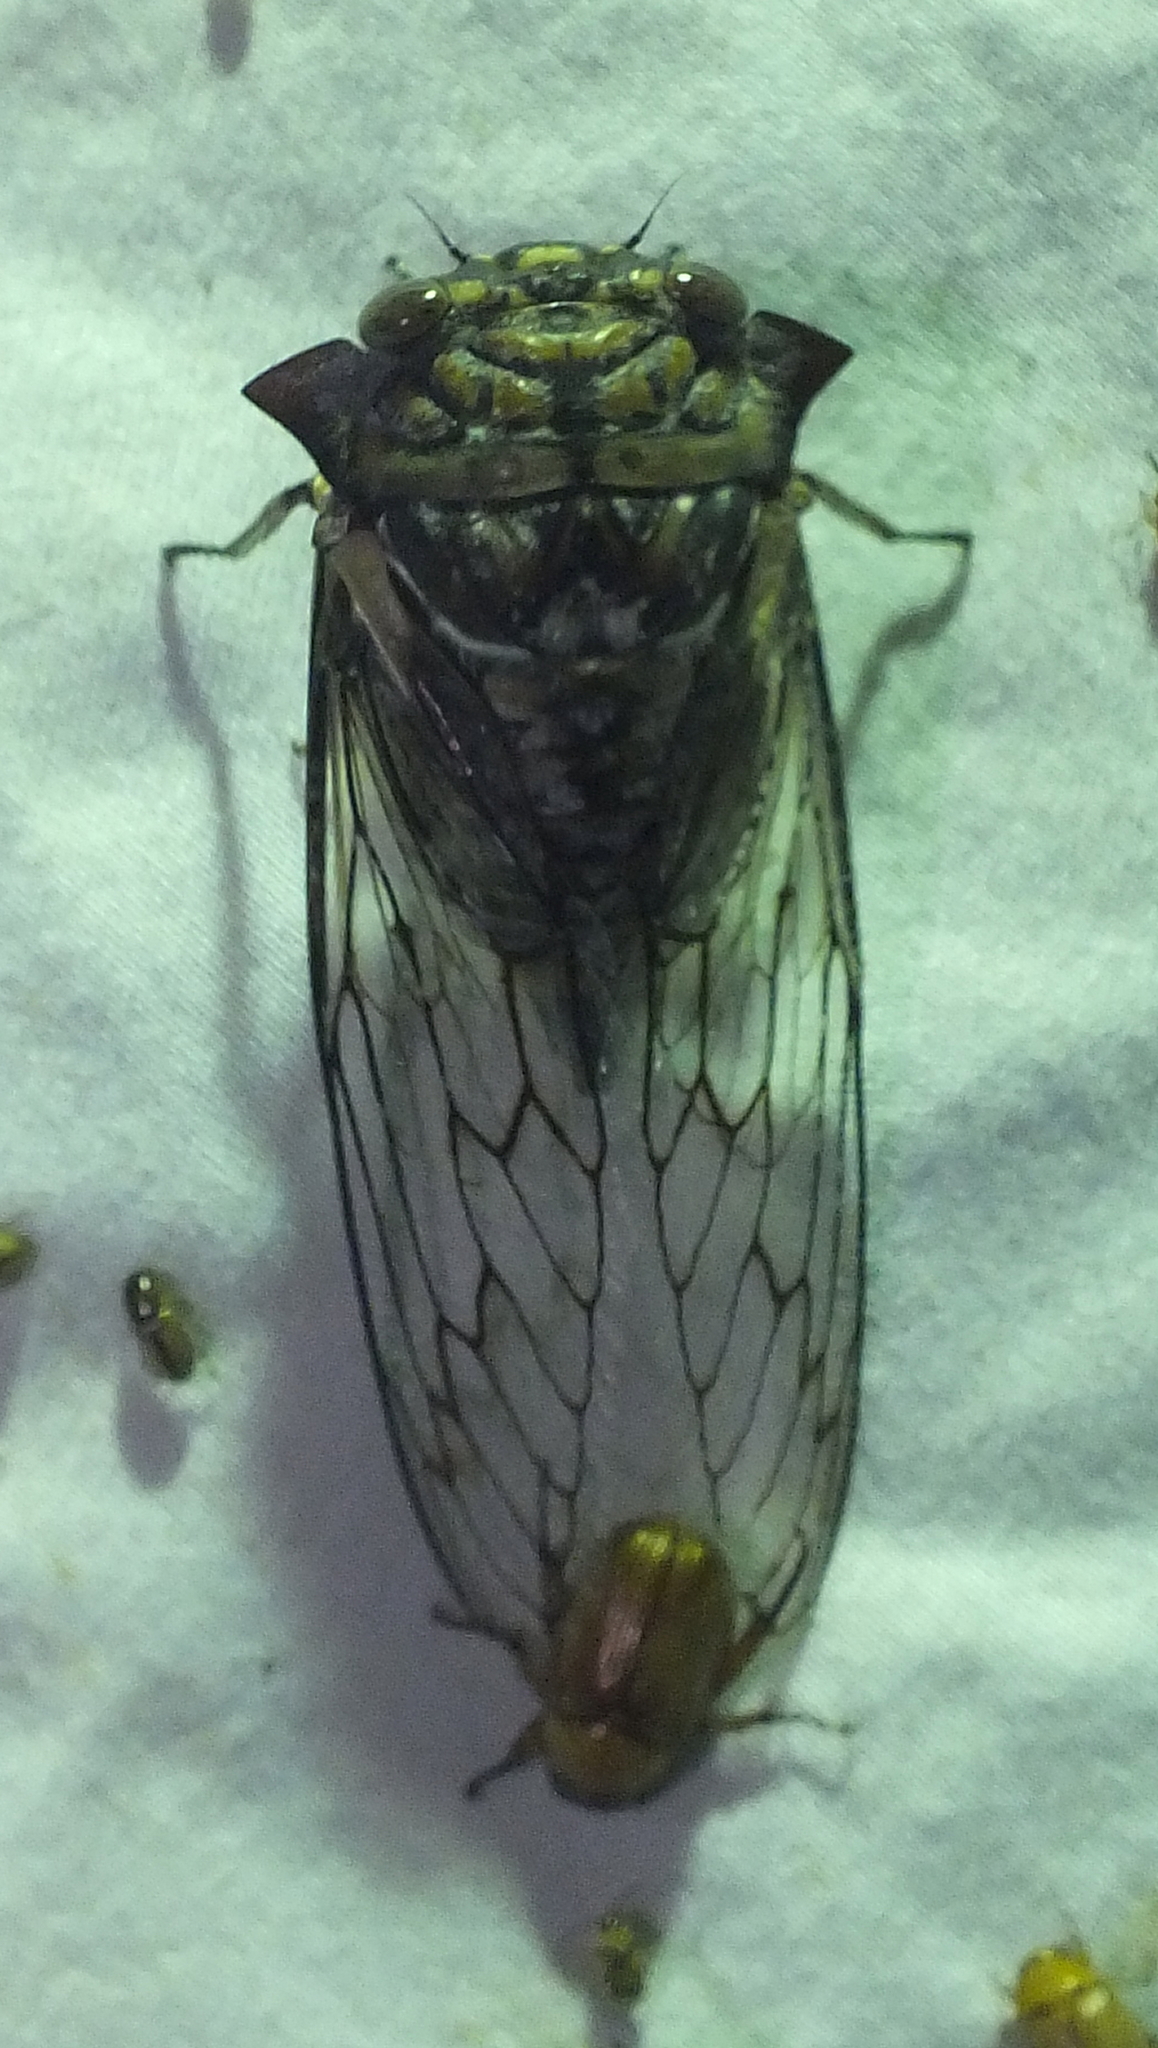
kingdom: Animalia
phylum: Arthropoda
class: Insecta
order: Hemiptera
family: Cicadidae
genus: Oxypleura
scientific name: Oxypleura quadraticollis
